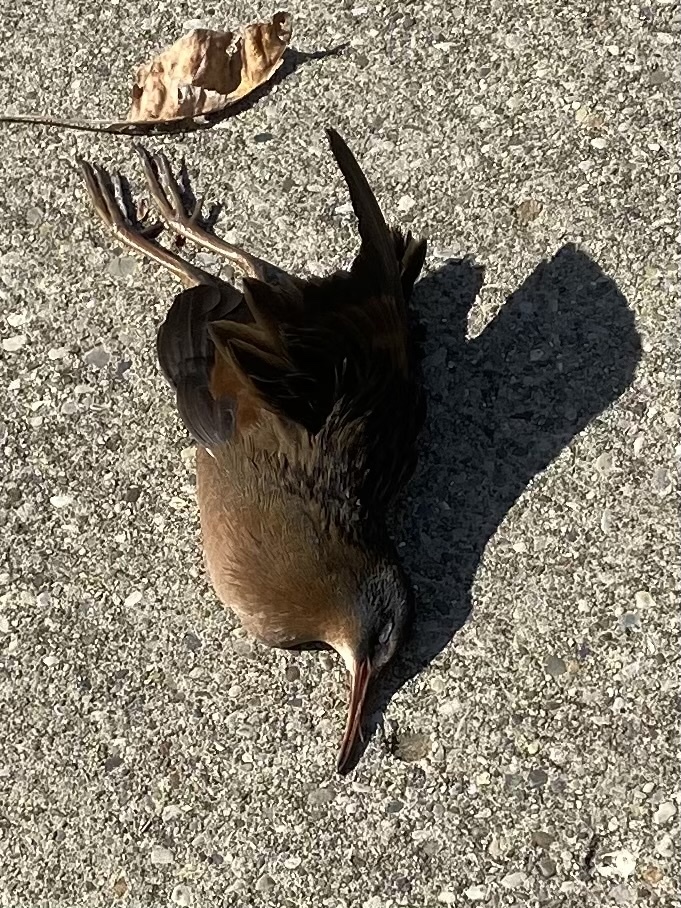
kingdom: Animalia
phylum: Chordata
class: Aves
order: Gruiformes
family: Rallidae
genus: Rallus
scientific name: Rallus limicola
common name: Virginia rail
